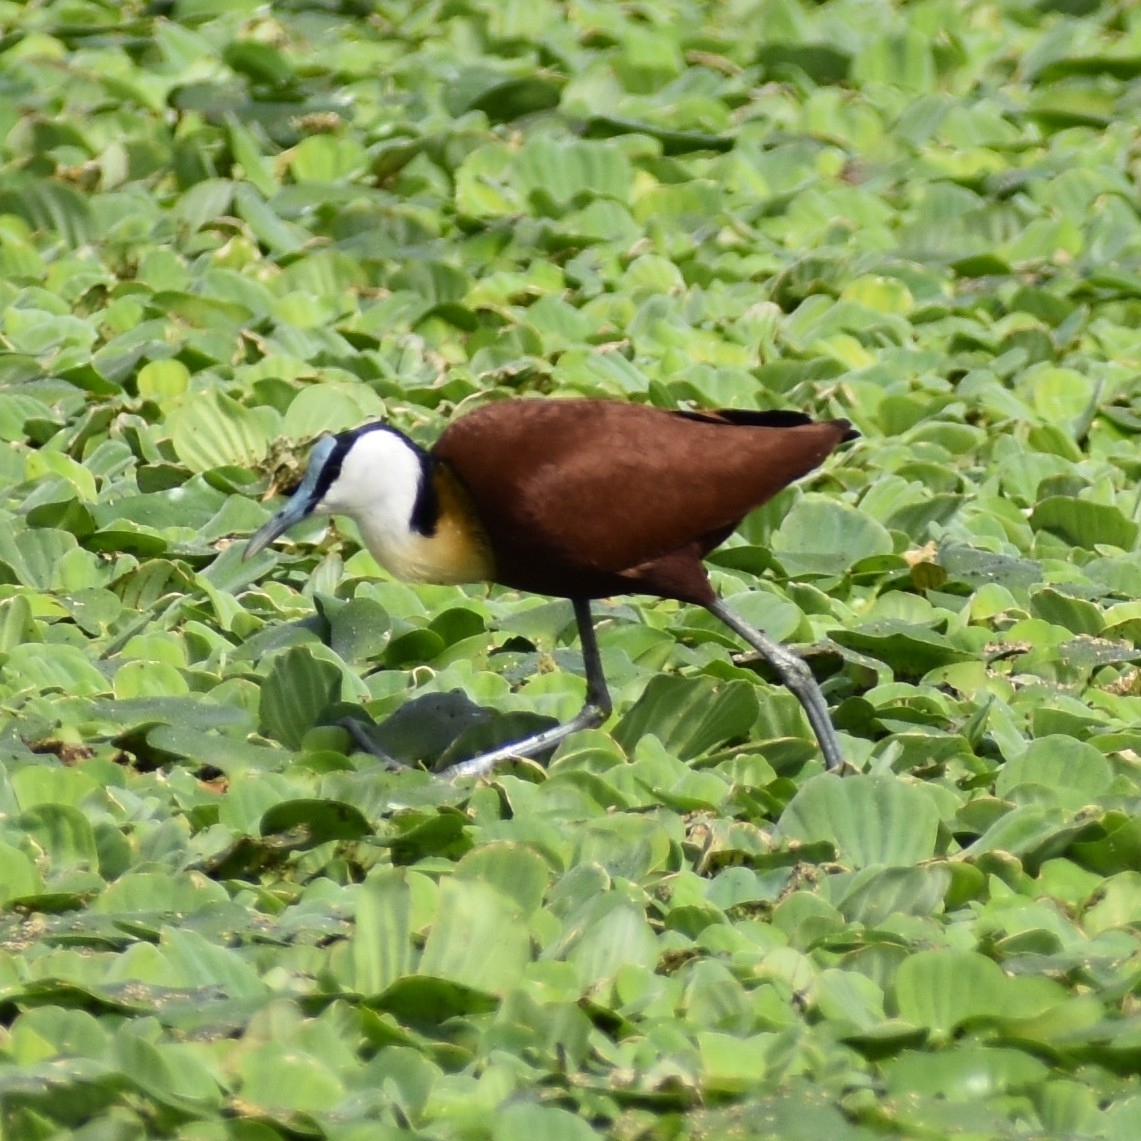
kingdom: Animalia
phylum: Chordata
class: Aves
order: Charadriiformes
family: Jacanidae
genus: Actophilornis
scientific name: Actophilornis africanus
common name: African jacana
